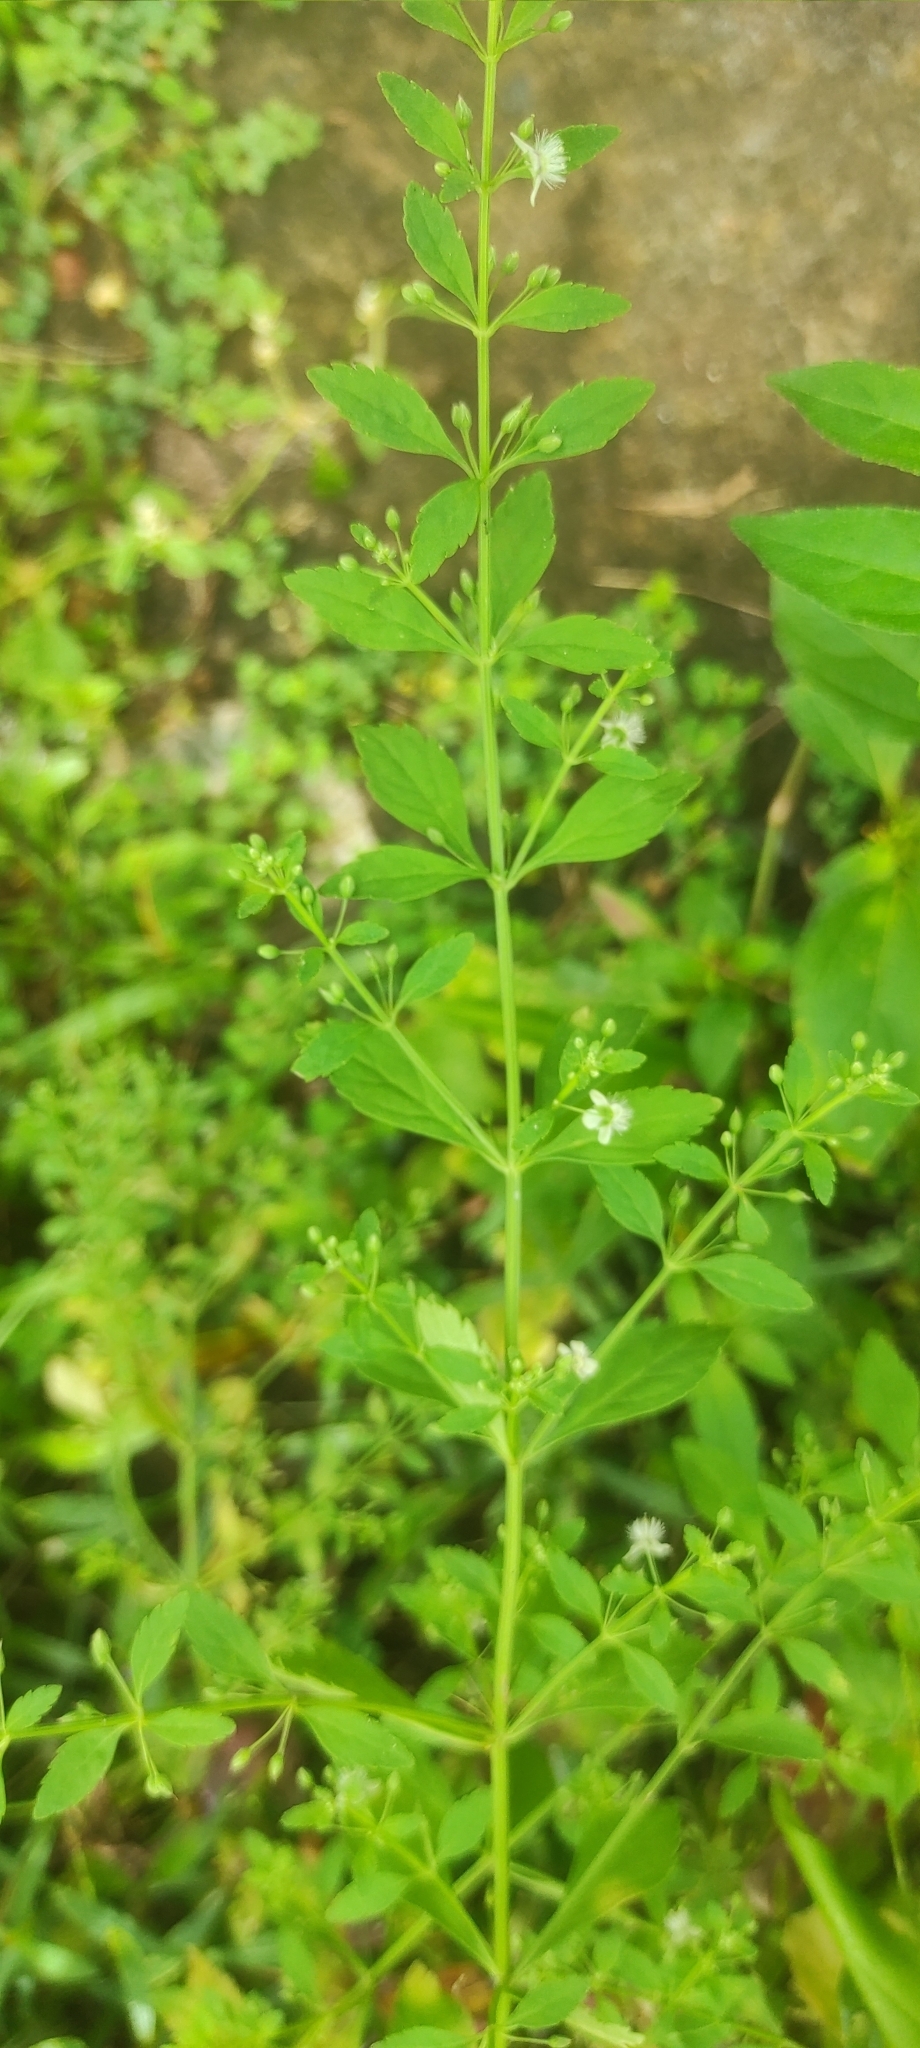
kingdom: Plantae
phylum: Tracheophyta
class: Magnoliopsida
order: Lamiales
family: Plantaginaceae
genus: Scoparia
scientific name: Scoparia dulcis
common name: Scoparia-weed
